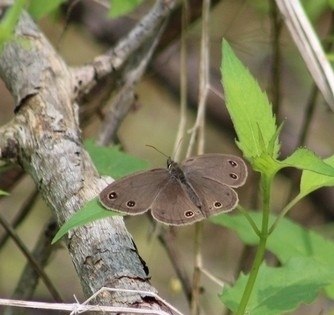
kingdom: Animalia
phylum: Arthropoda
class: Insecta
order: Lepidoptera
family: Nymphalidae
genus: Euptychia
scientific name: Euptychia cymela
